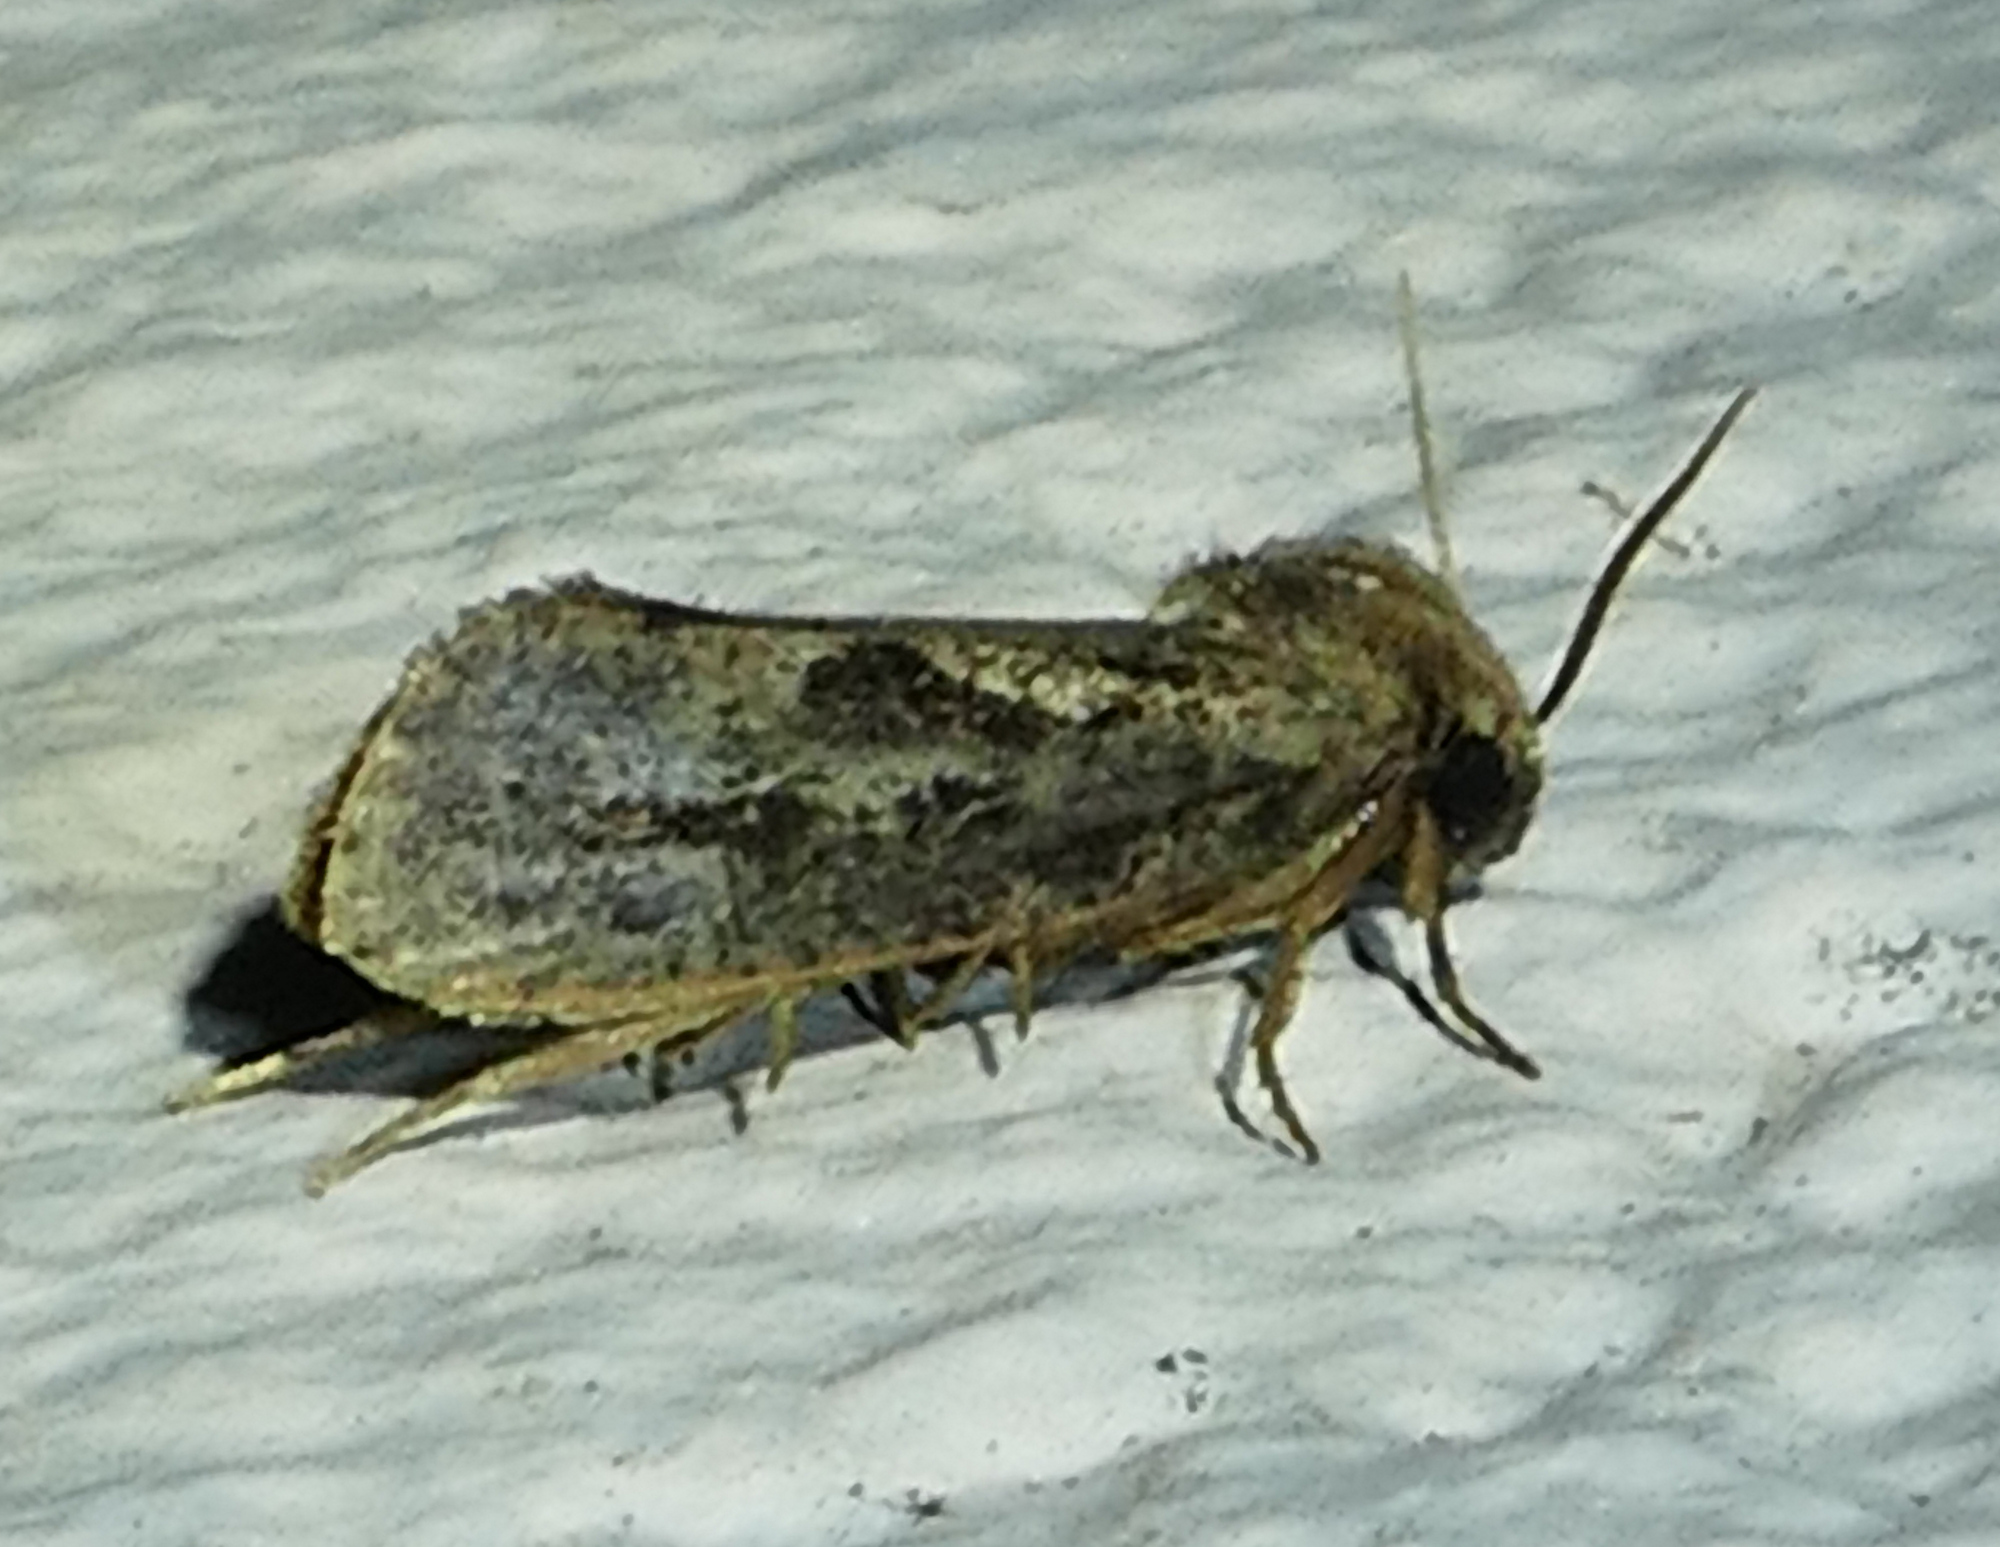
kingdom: Animalia
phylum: Arthropoda
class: Insecta
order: Lepidoptera
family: Tineidae
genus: Acrolophus
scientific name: Acrolophus popeanella
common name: Clemens' grass tubeworm moth
